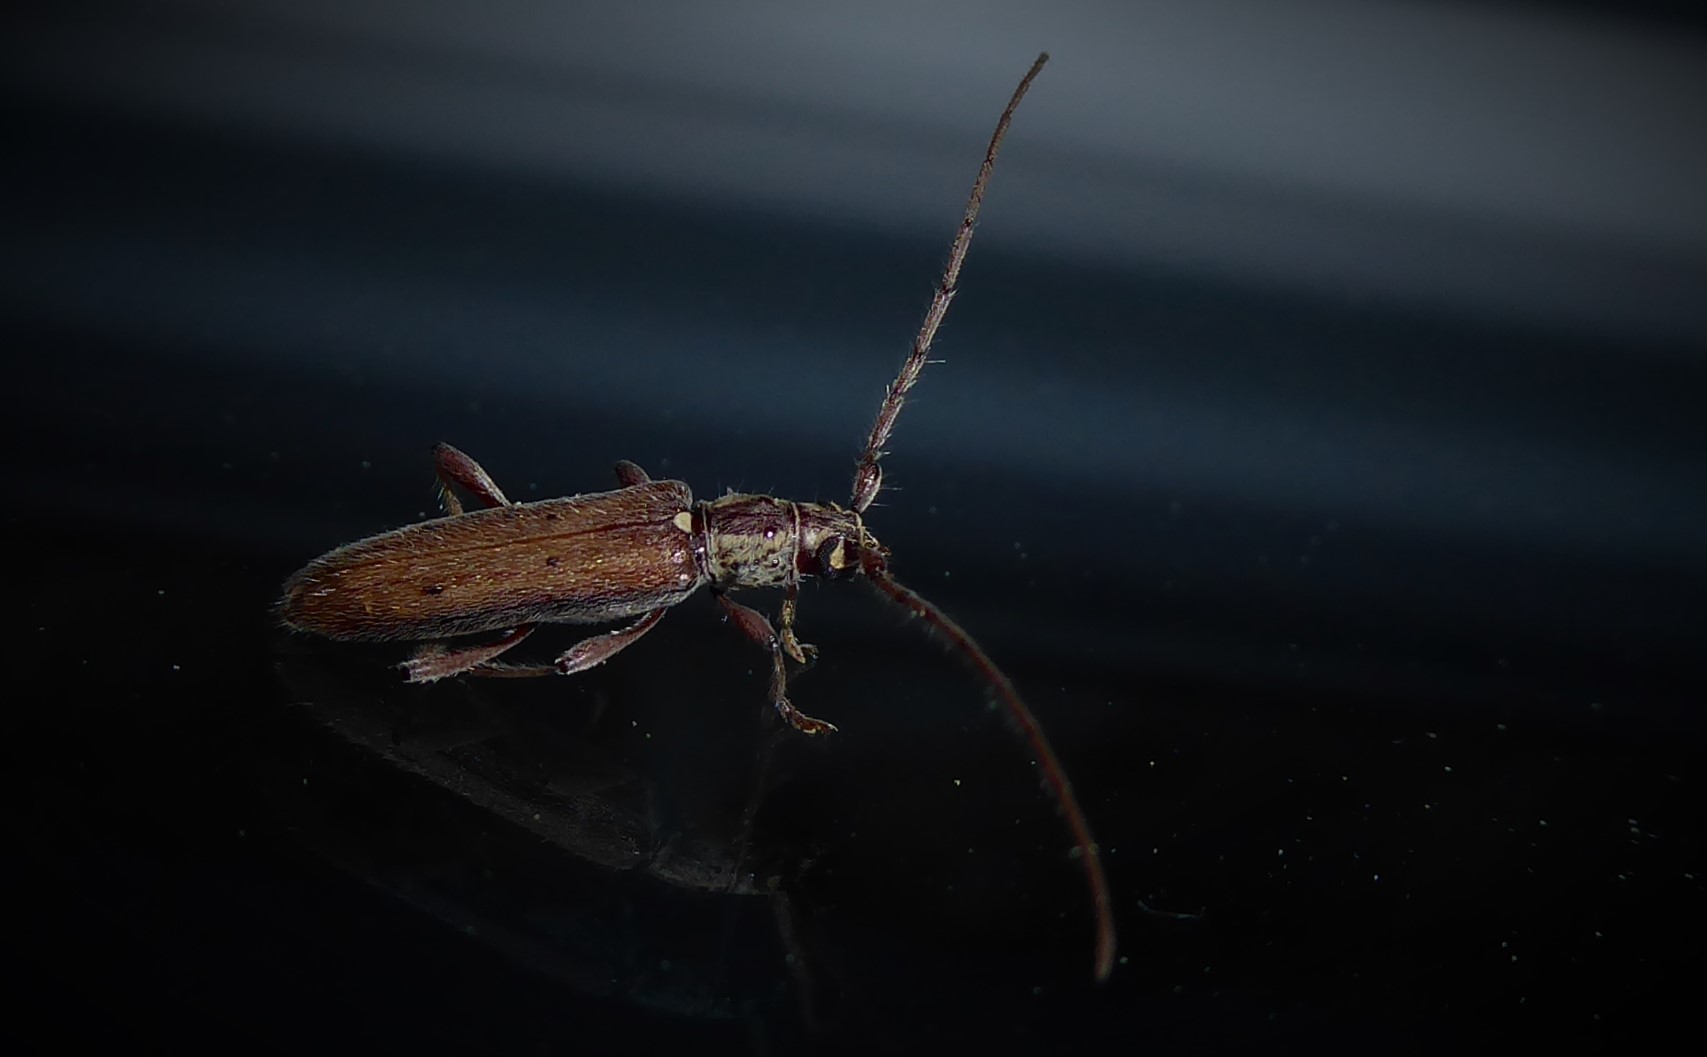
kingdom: Animalia
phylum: Arthropoda
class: Insecta
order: Coleoptera
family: Cerambycidae
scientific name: Cerambycidae
